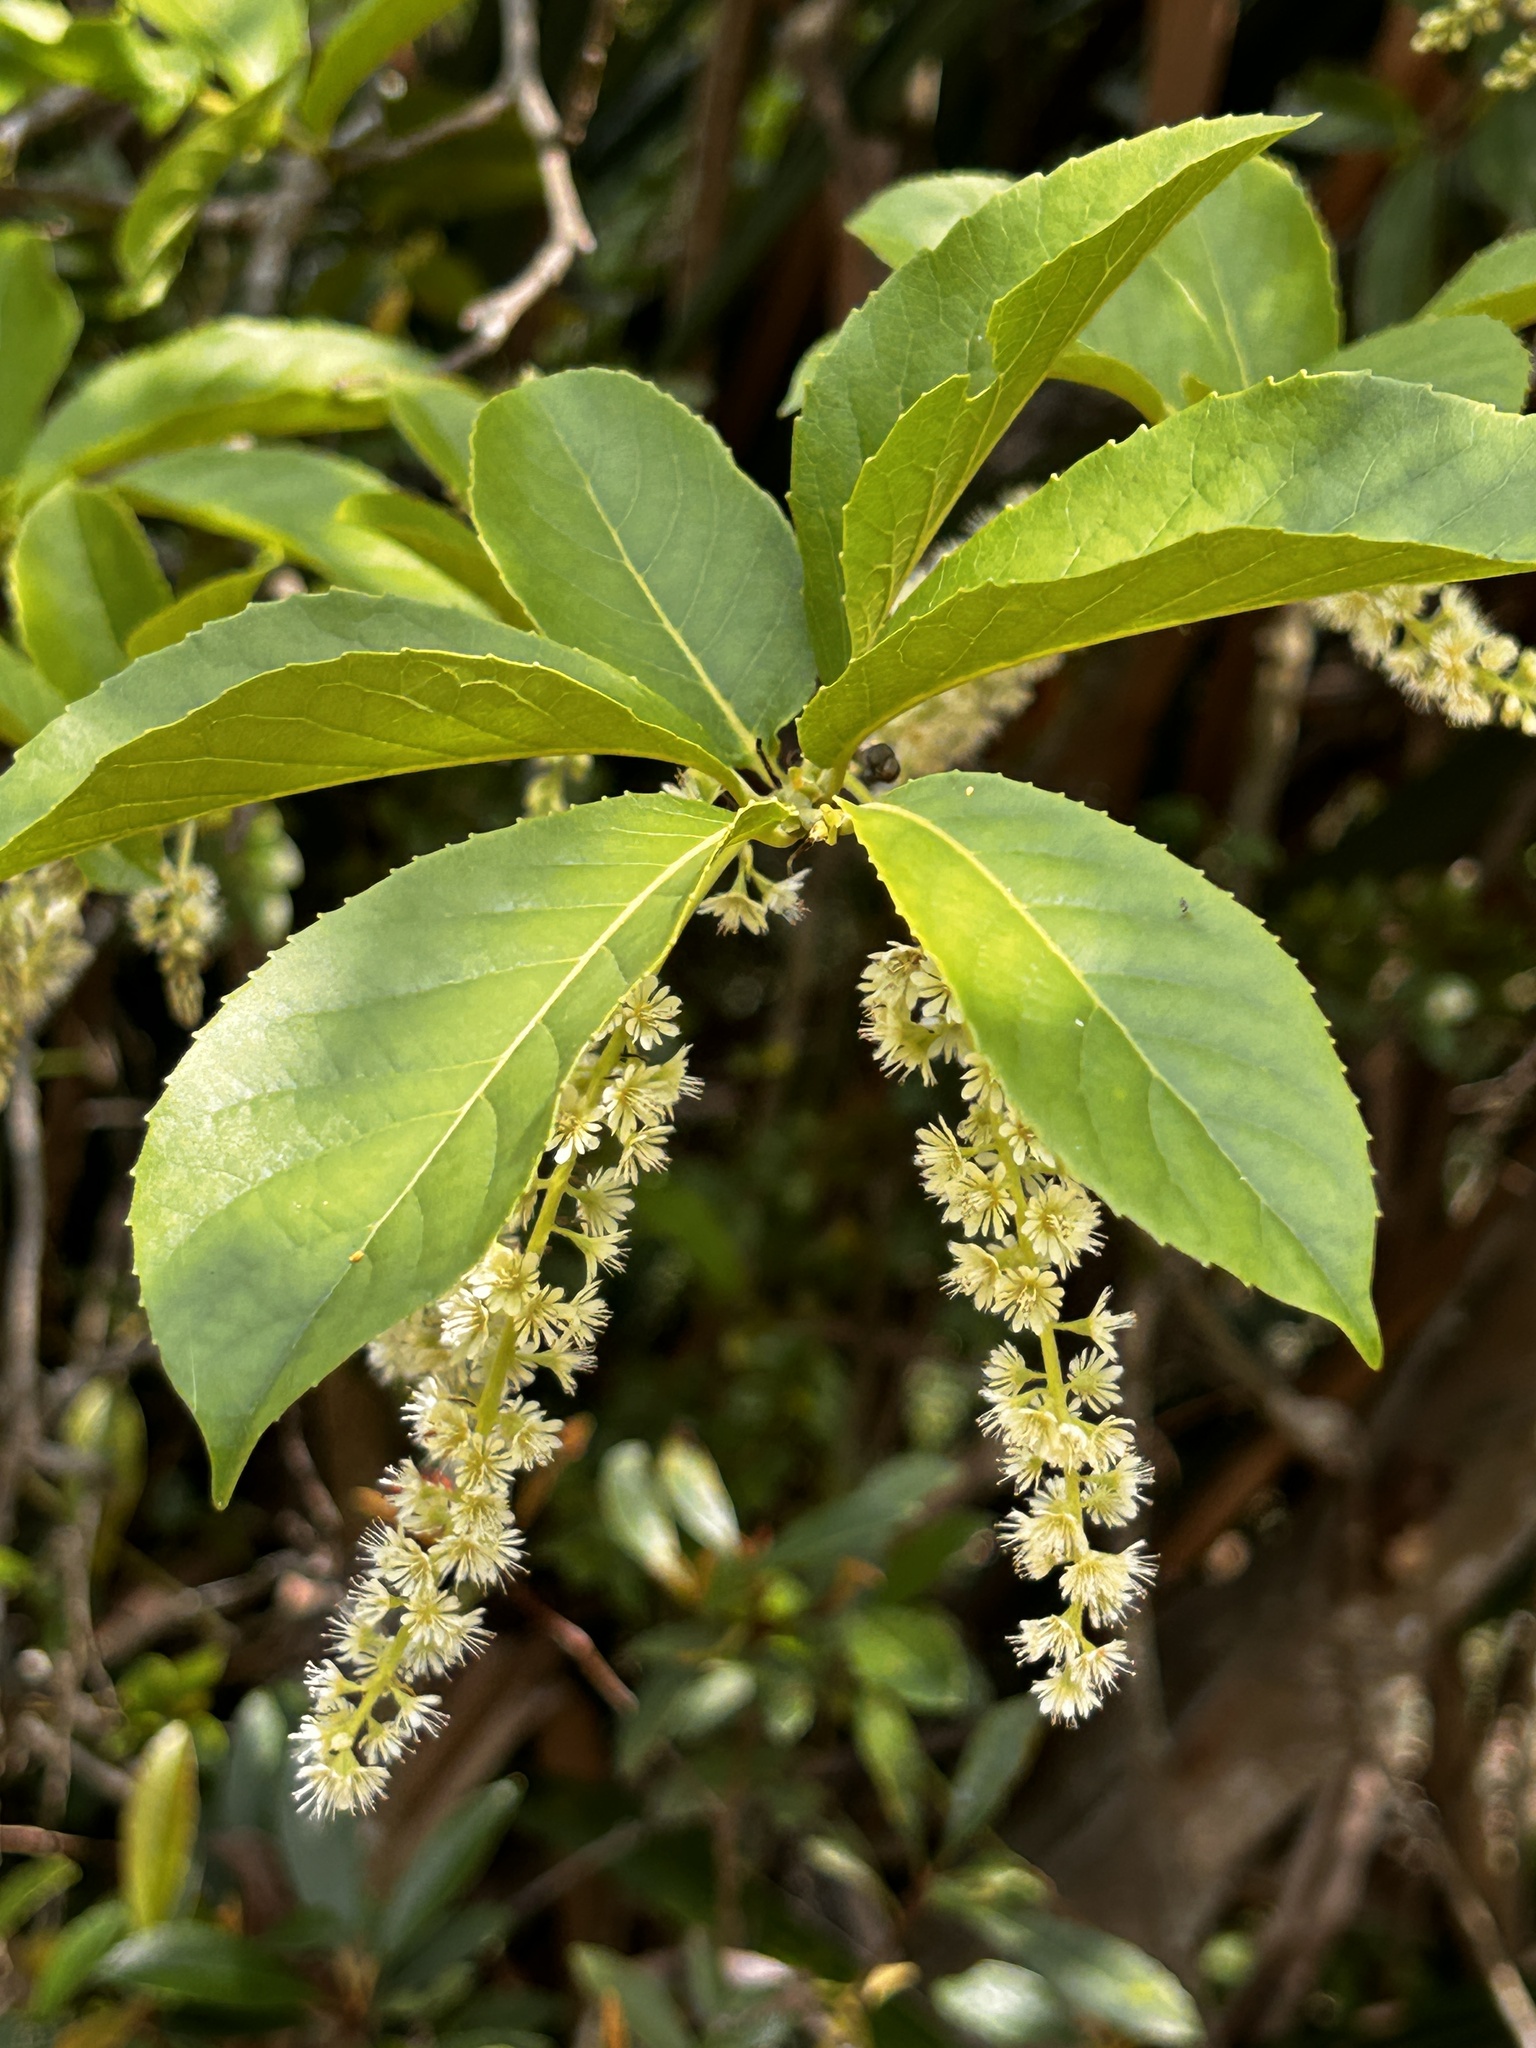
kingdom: Plantae
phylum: Tracheophyta
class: Magnoliopsida
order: Malpighiales
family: Salicaceae
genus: Homalium
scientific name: Homalium cochinchinensis
